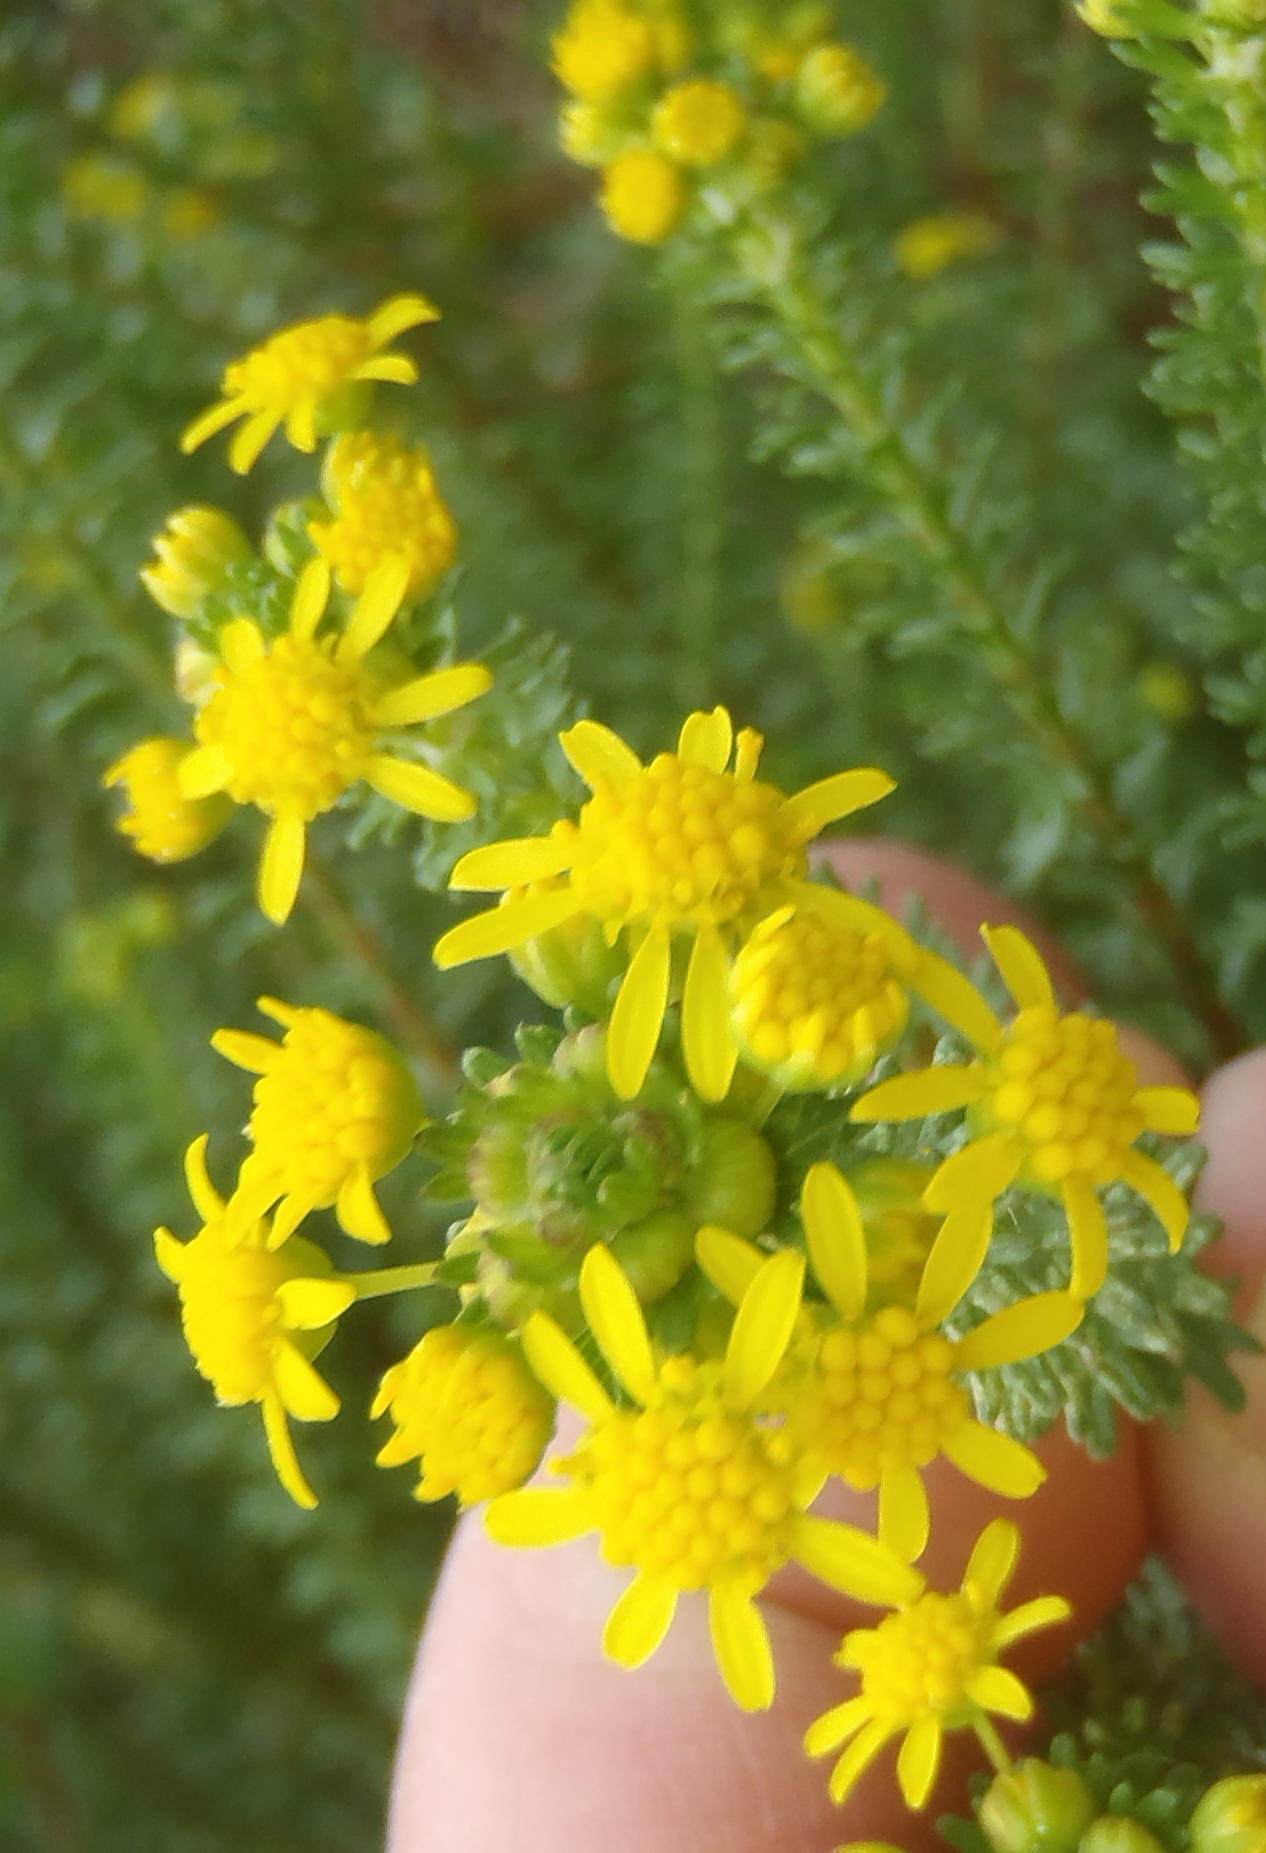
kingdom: Plantae
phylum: Tracheophyta
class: Magnoliopsida
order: Asterales
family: Asteraceae
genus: Euryops
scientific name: Euryops virgineus
